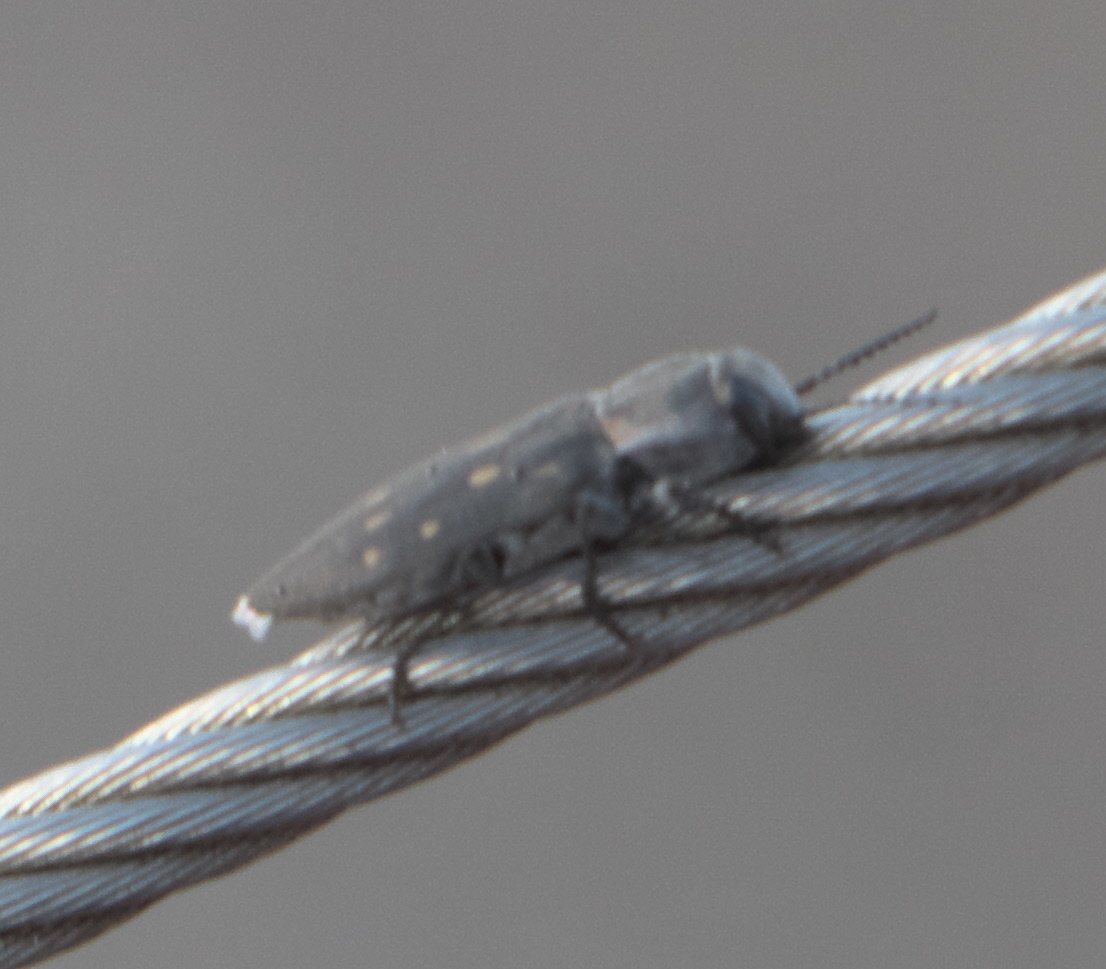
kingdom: Animalia
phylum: Arthropoda
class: Insecta
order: Coleoptera
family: Buprestidae
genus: Melanophila
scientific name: Melanophila consputa
